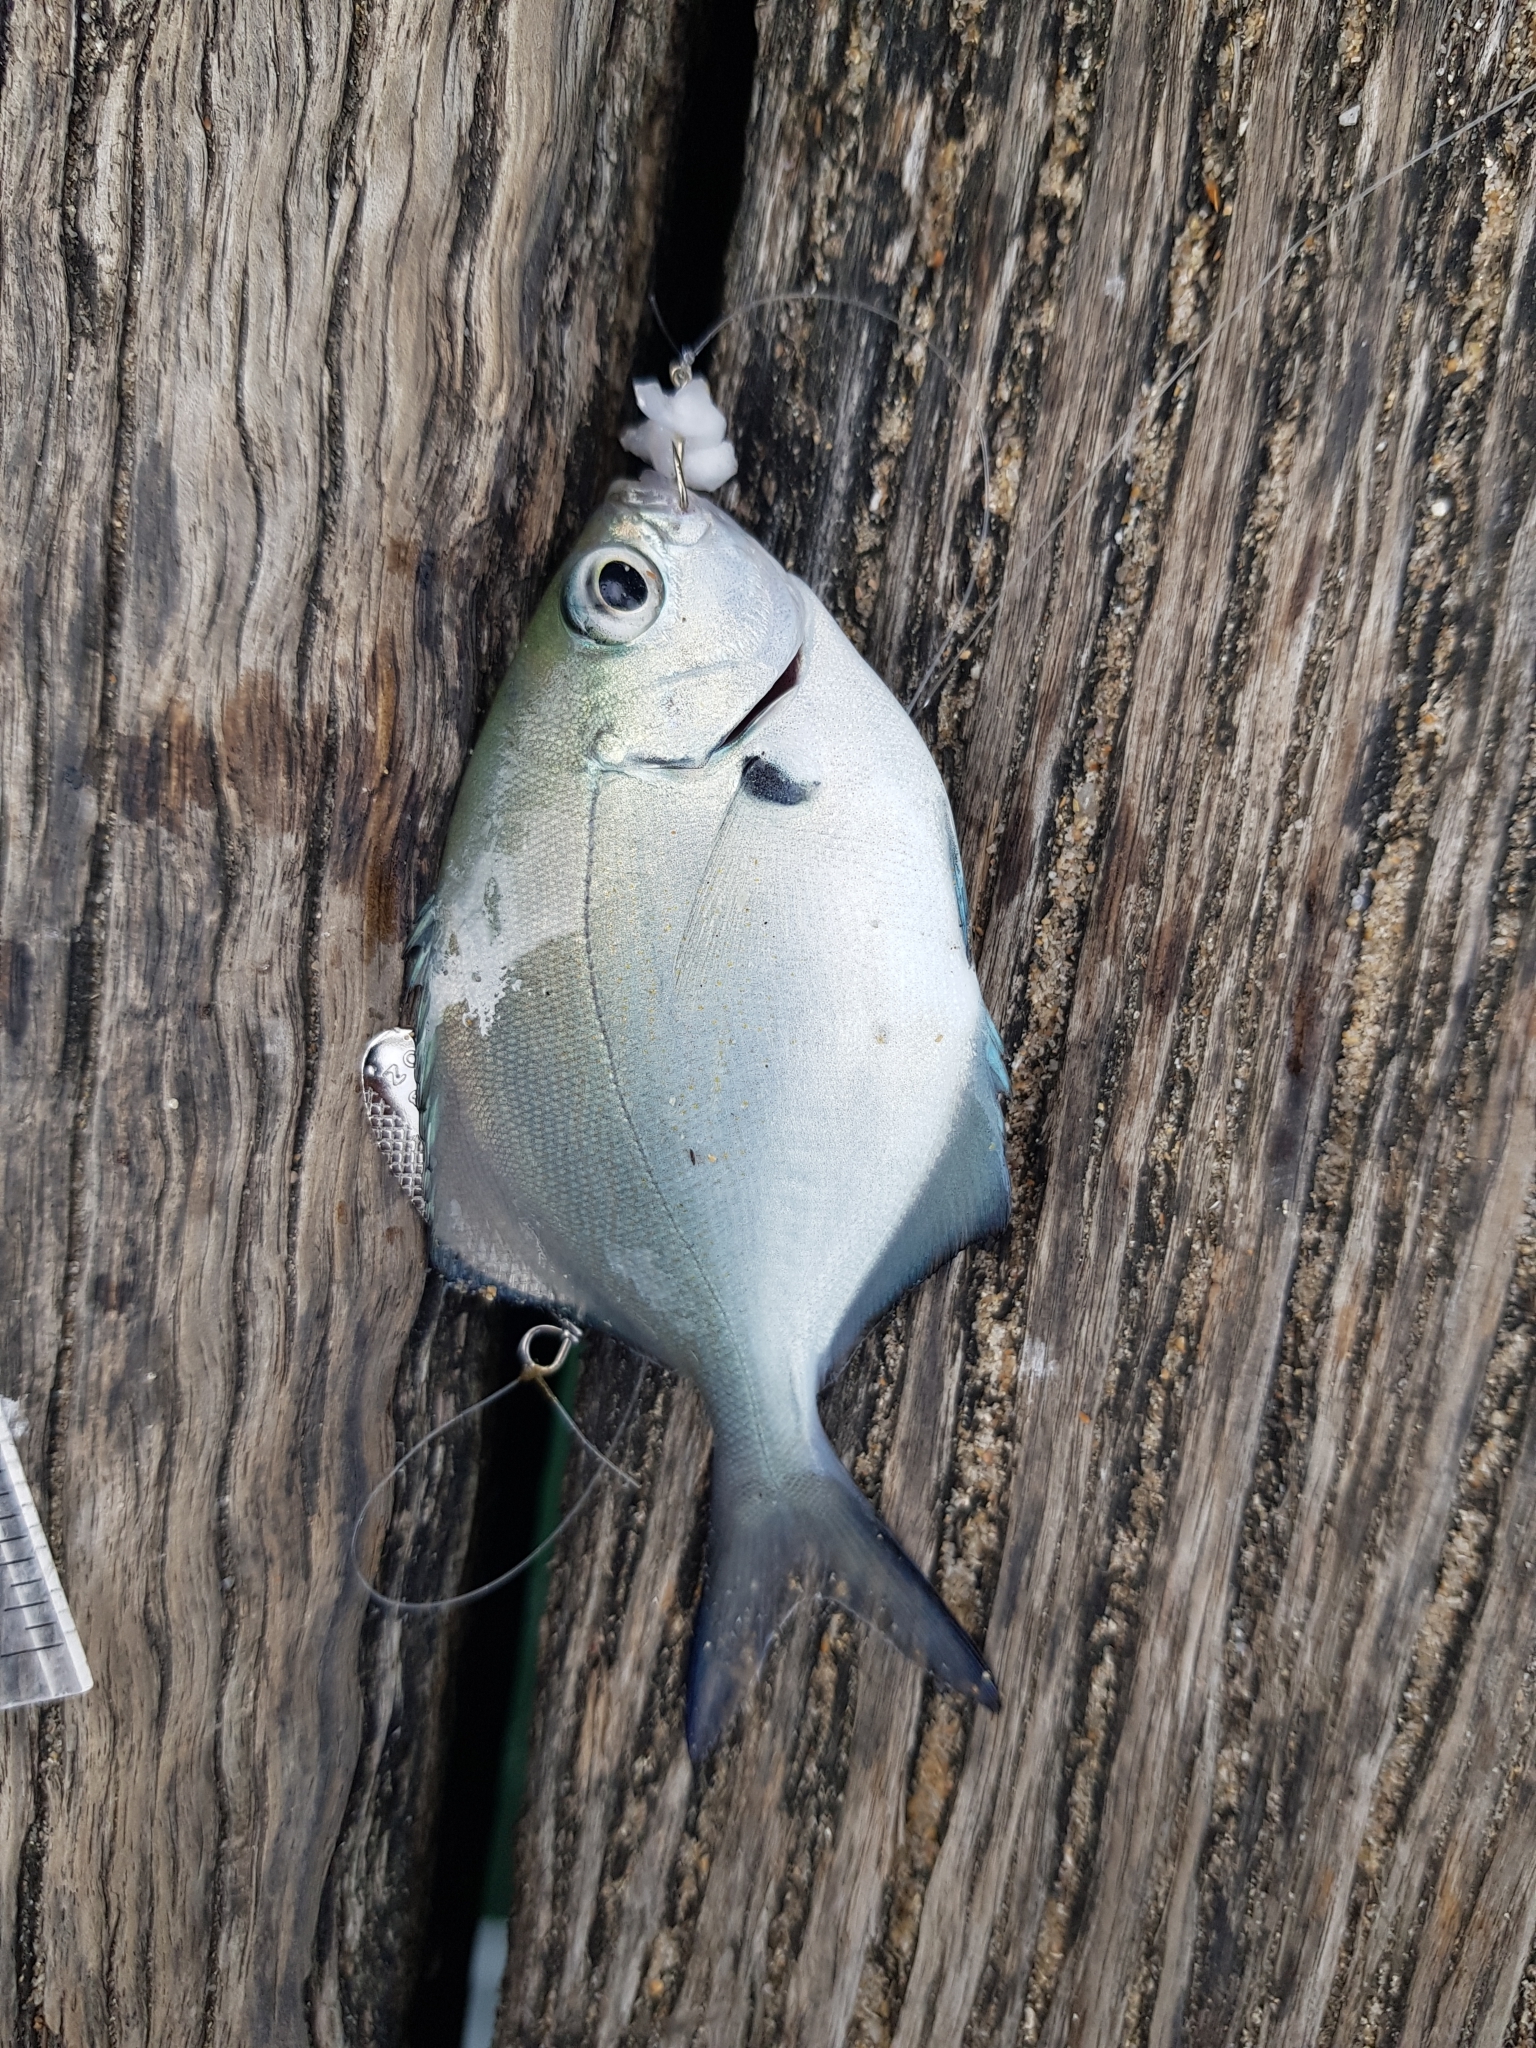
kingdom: Animalia
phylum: Chordata
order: Perciformes
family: Kyphosidae
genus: Scorpis
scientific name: Scorpis lineolata
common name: Sweep
